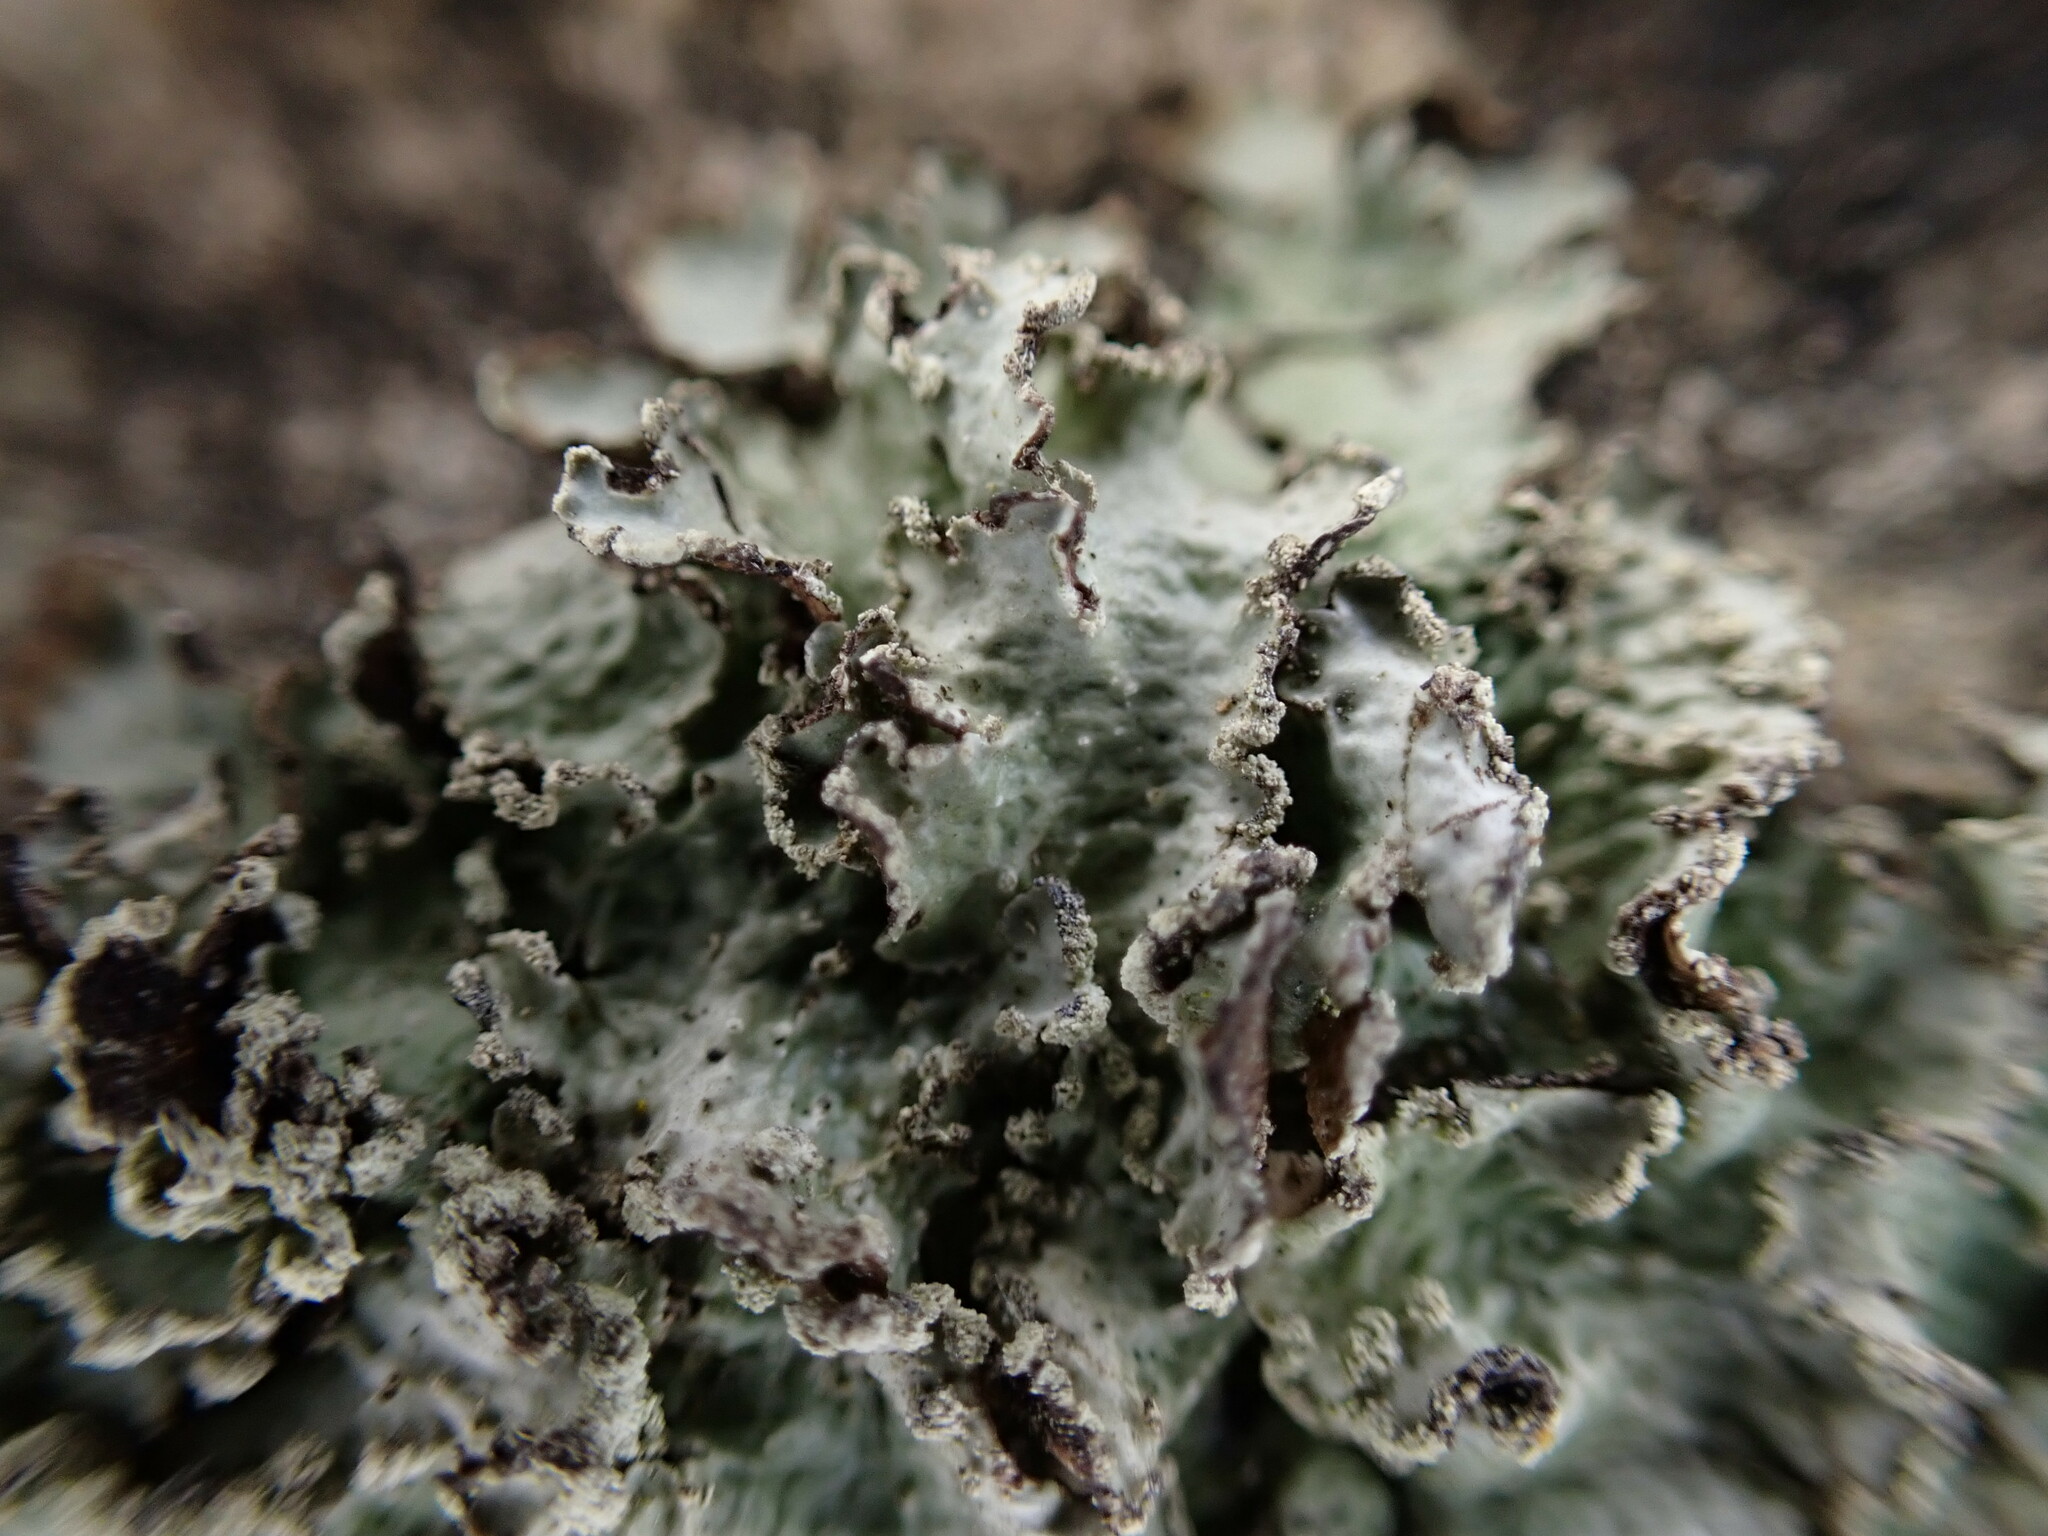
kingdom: Fungi
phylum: Ascomycota
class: Lecanoromycetes
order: Lecanorales
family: Parmeliaceae
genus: Punctelia
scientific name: Punctelia jeckeri
